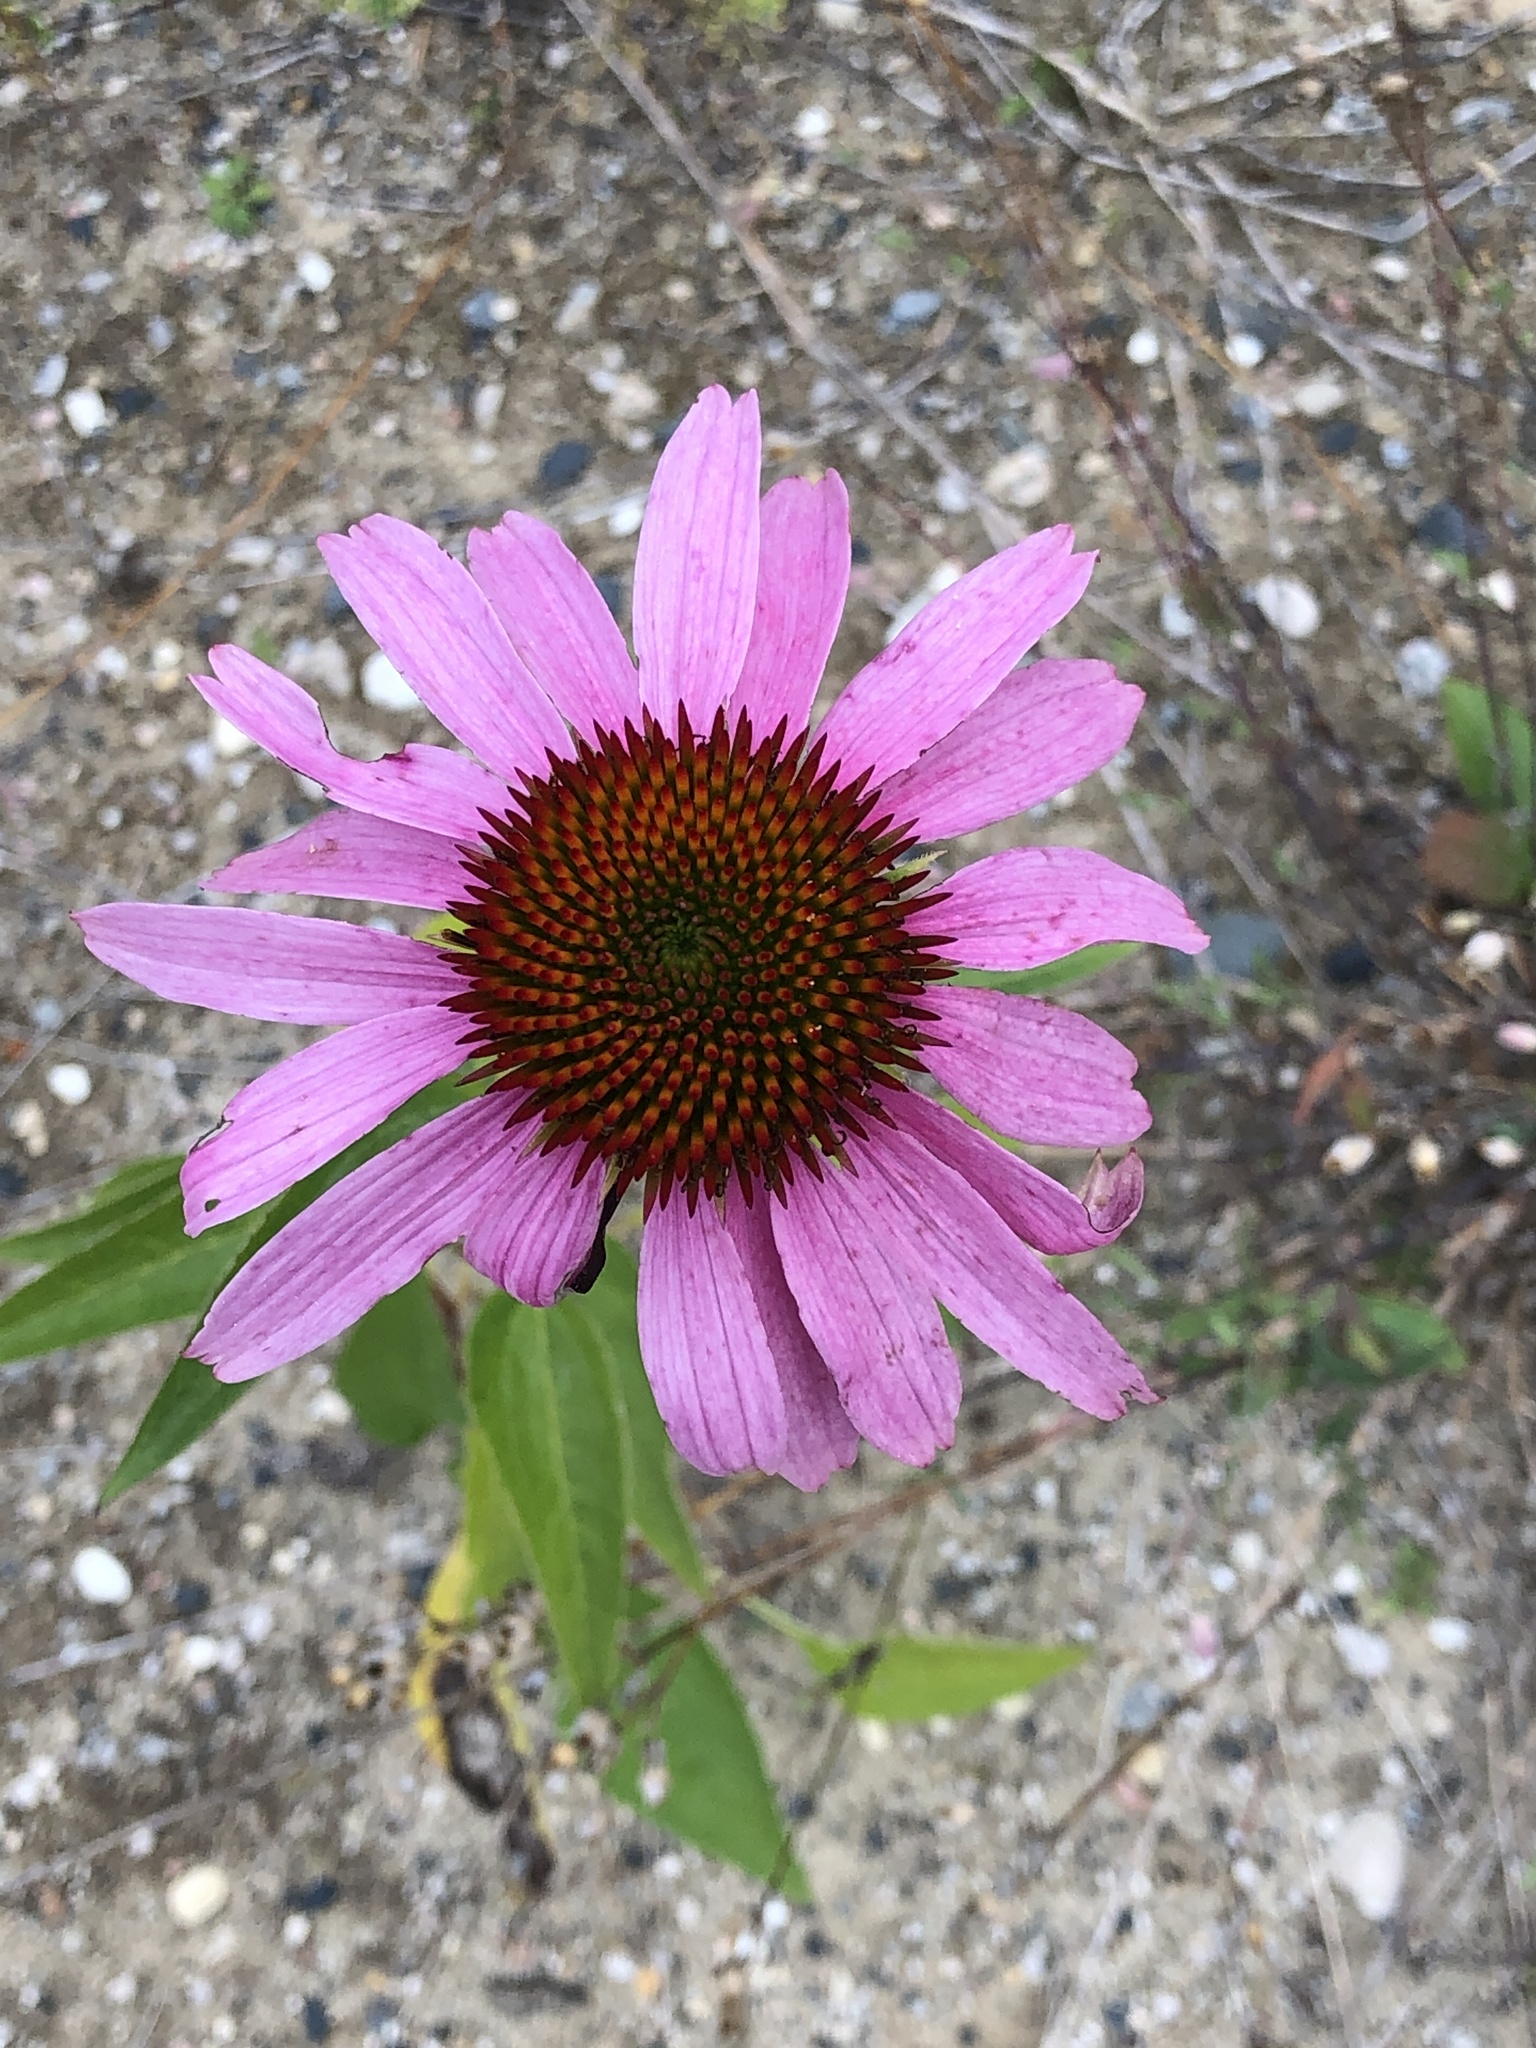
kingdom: Plantae
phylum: Tracheophyta
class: Magnoliopsida
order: Asterales
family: Asteraceae
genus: Echinacea
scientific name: Echinacea purpurea
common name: Broad-leaved purple coneflower
